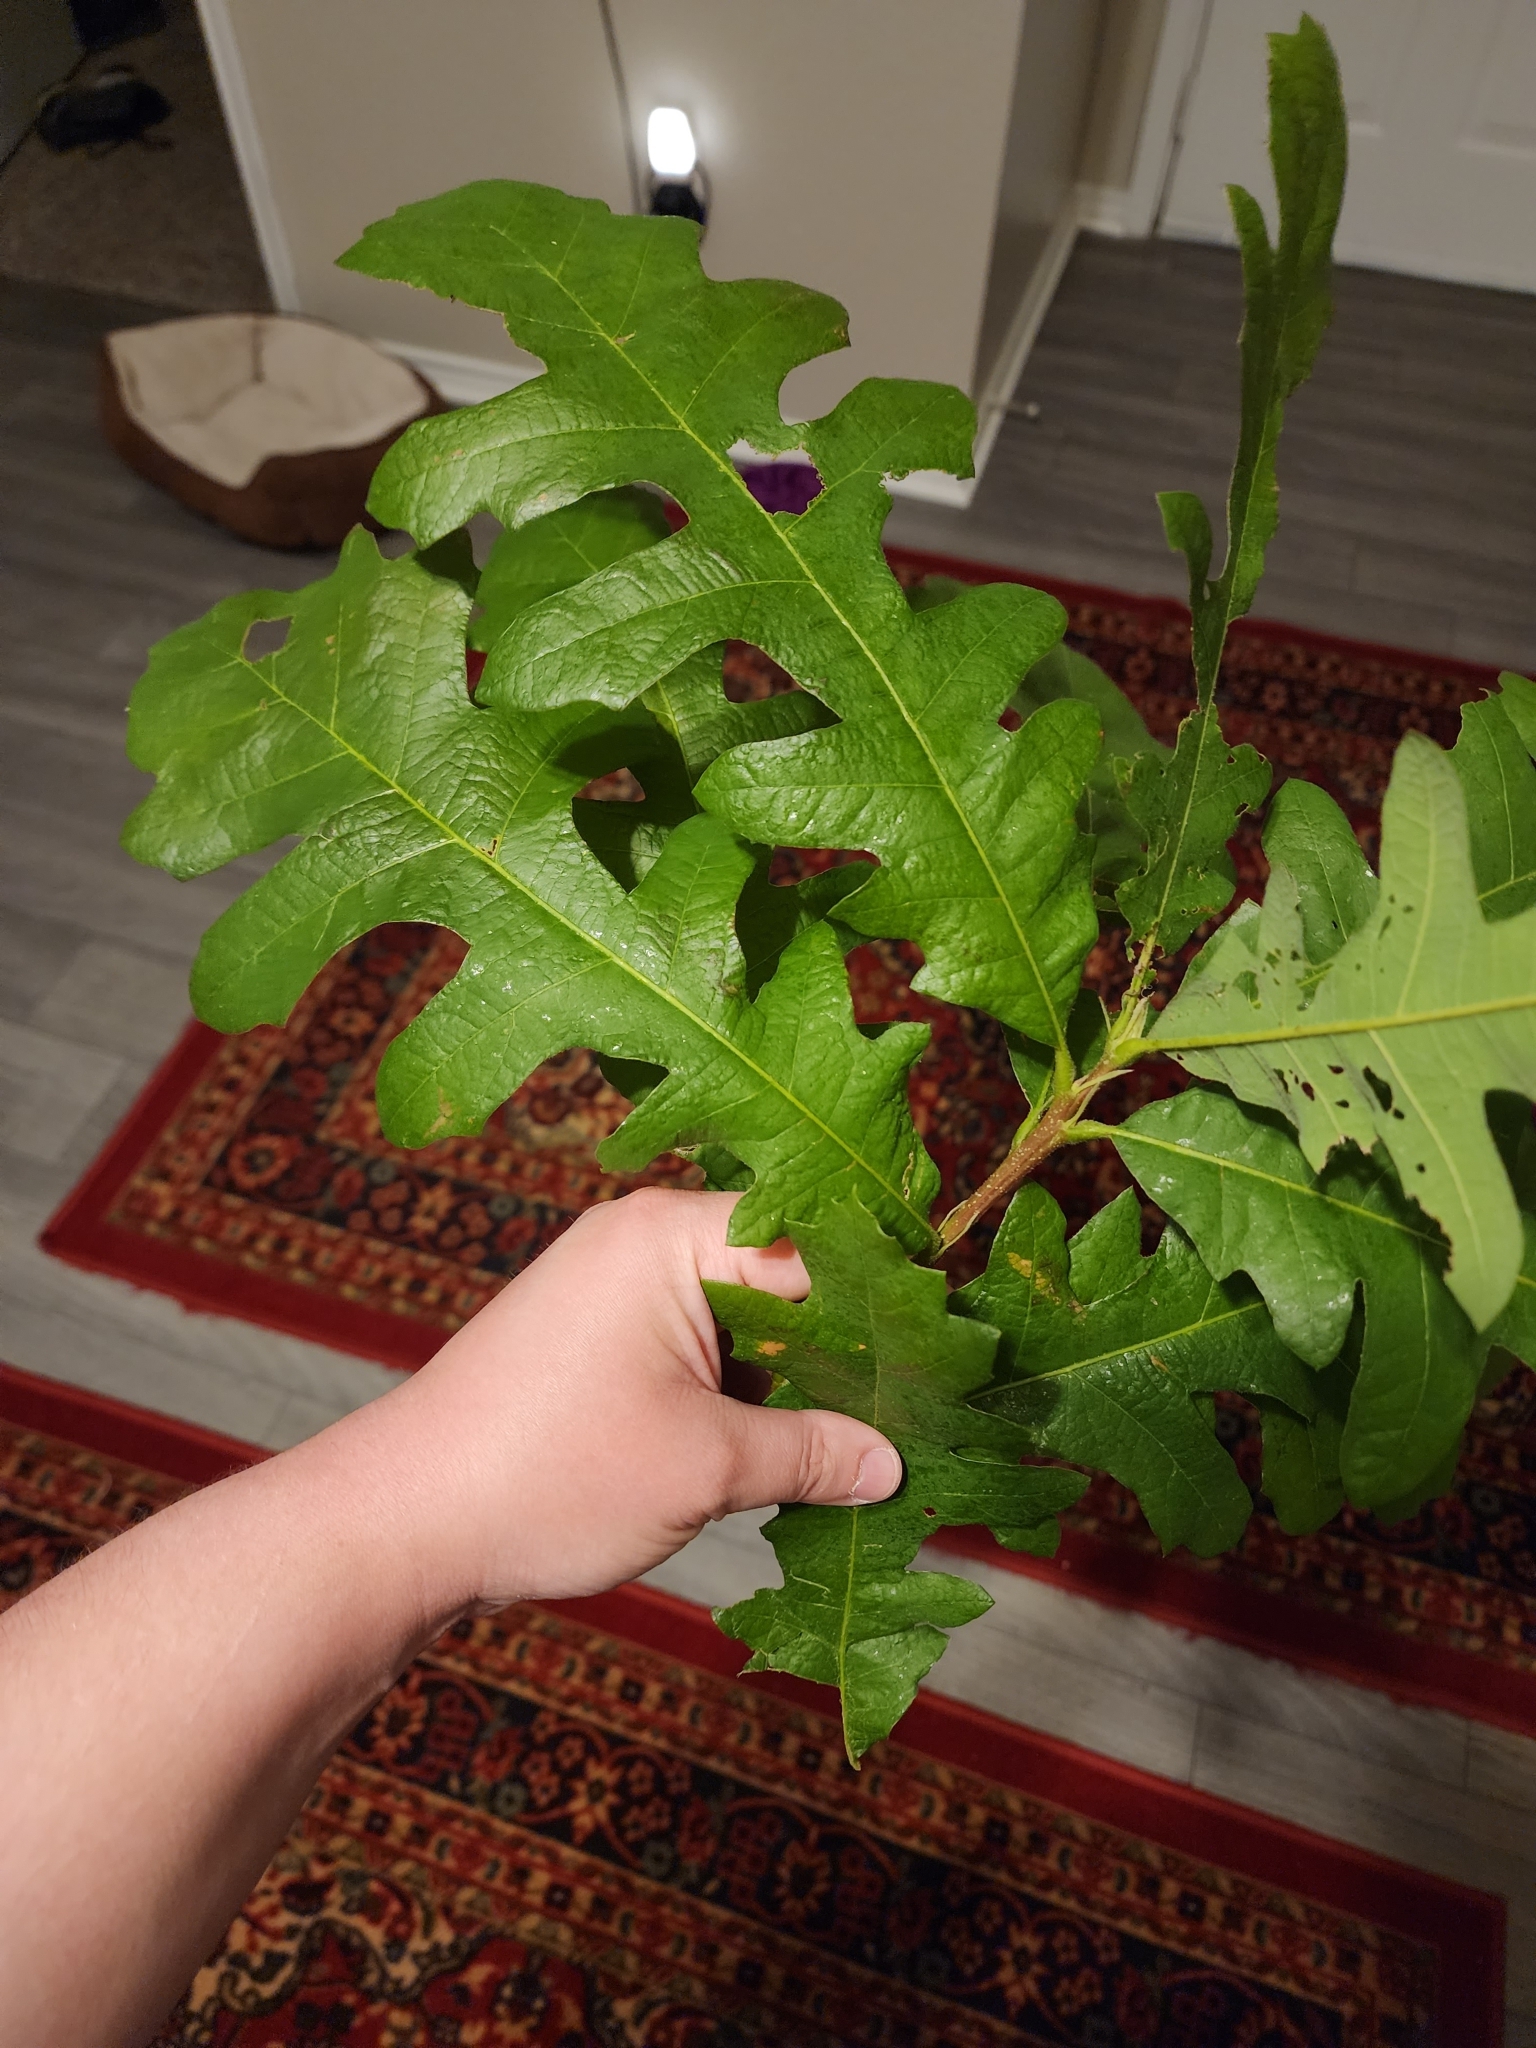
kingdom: Plantae
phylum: Tracheophyta
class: Magnoliopsida
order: Fagales
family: Fagaceae
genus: Quercus
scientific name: Quercus macrocarpa
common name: Bur oak
